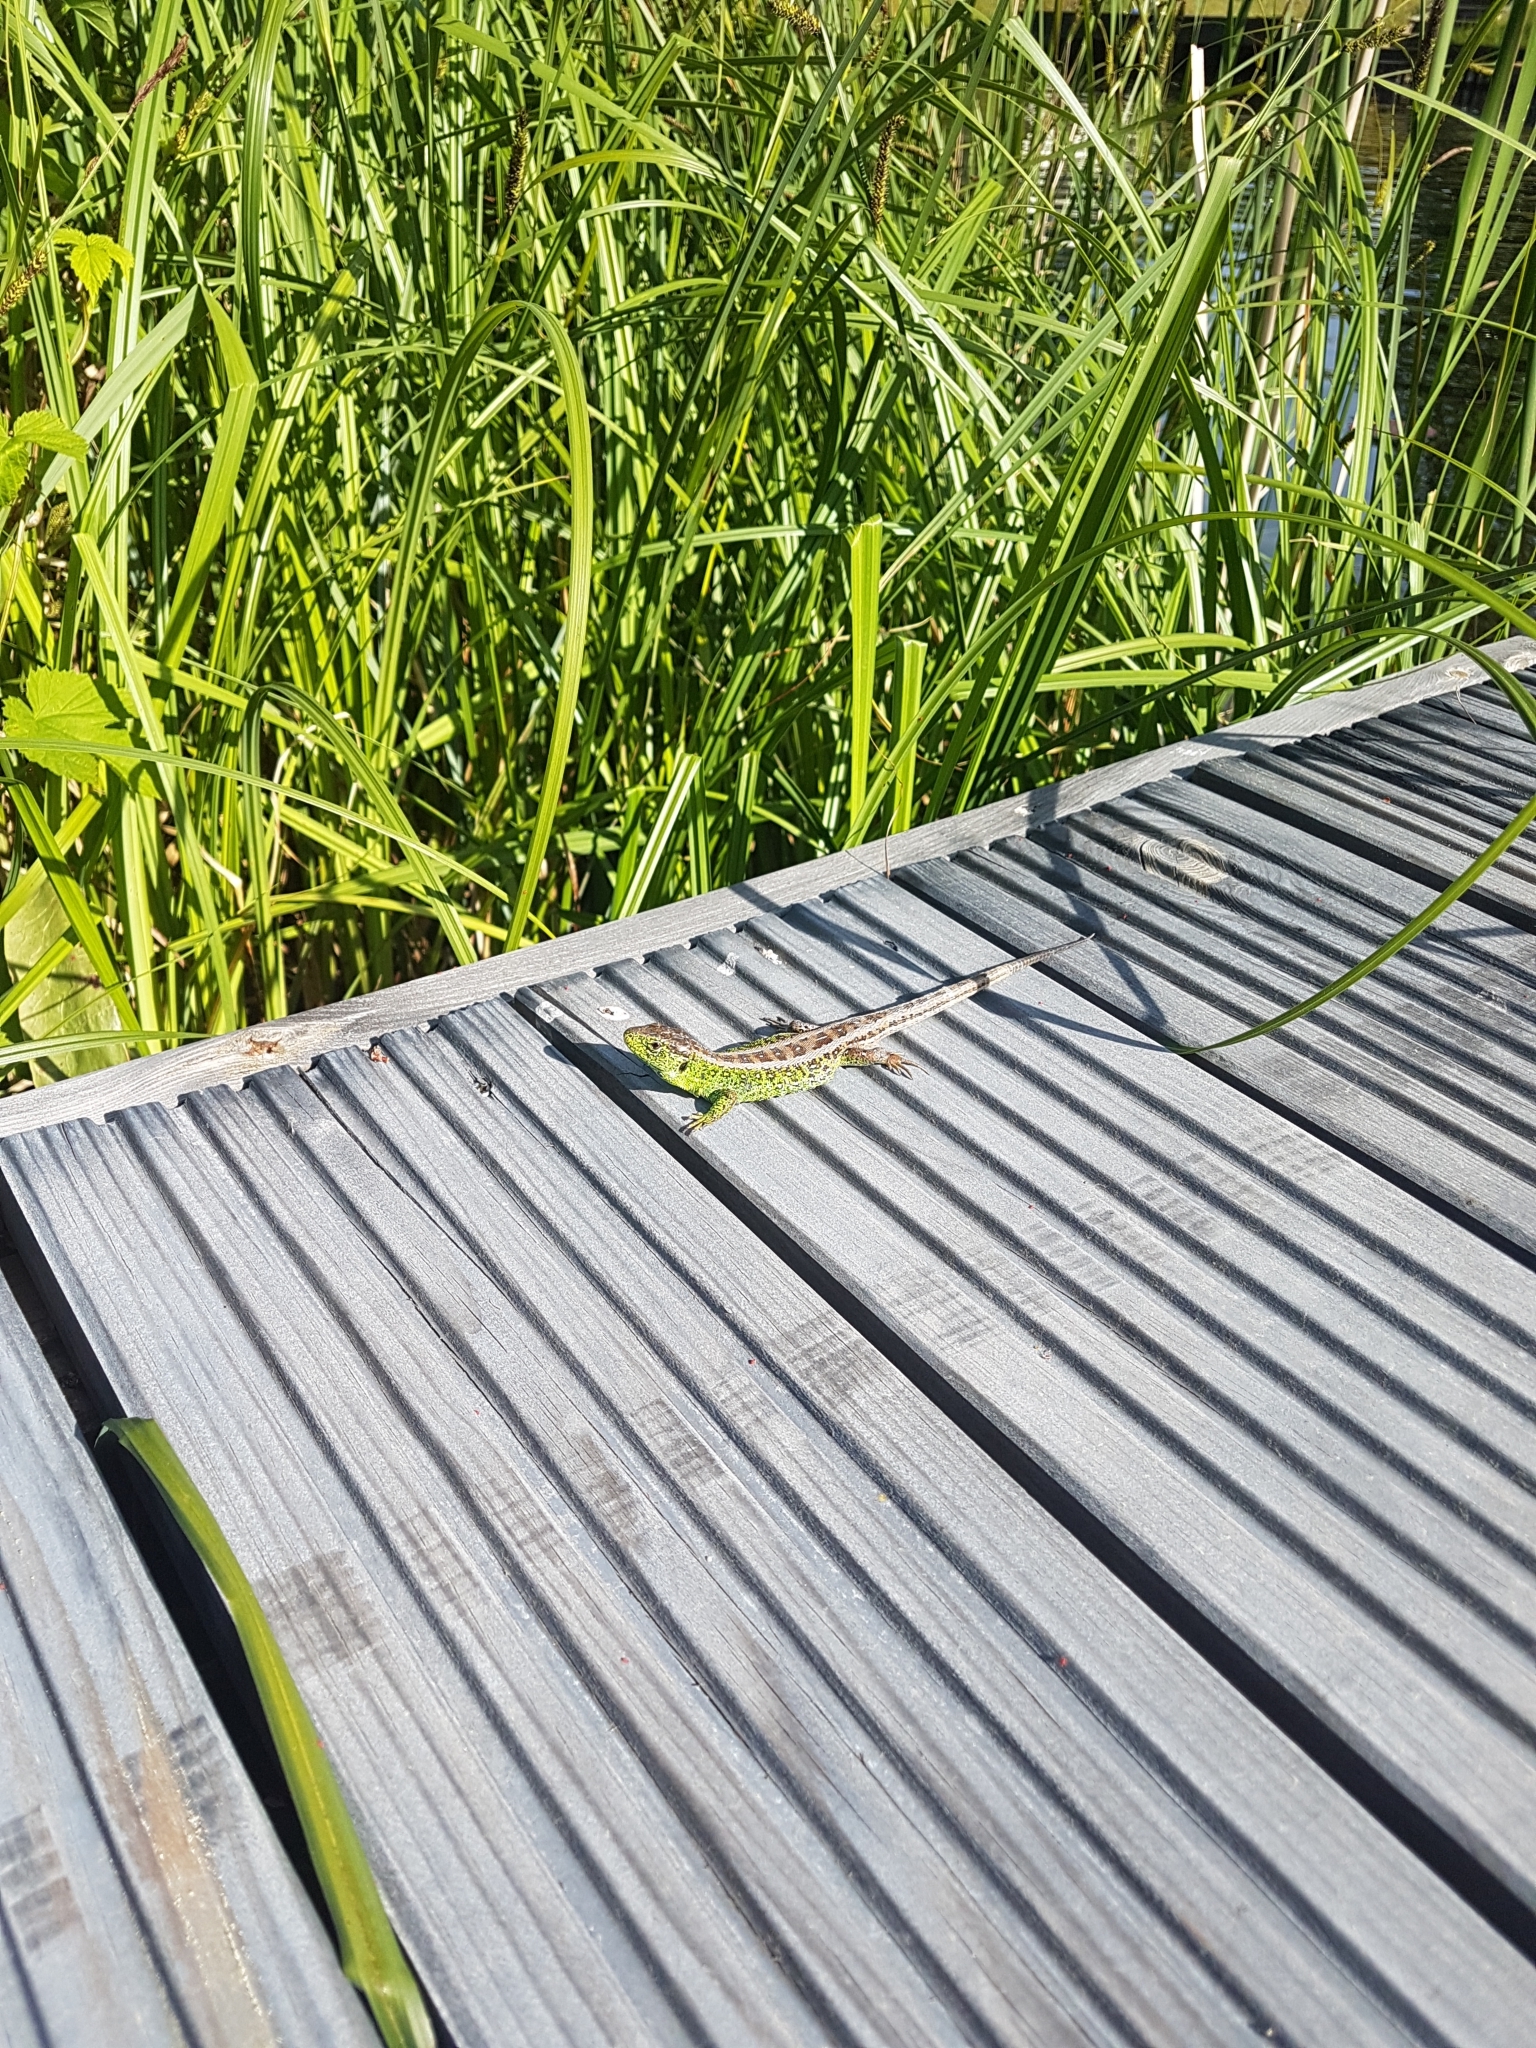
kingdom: Animalia
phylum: Chordata
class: Squamata
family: Lacertidae
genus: Lacerta
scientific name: Lacerta agilis
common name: Sand lizard
